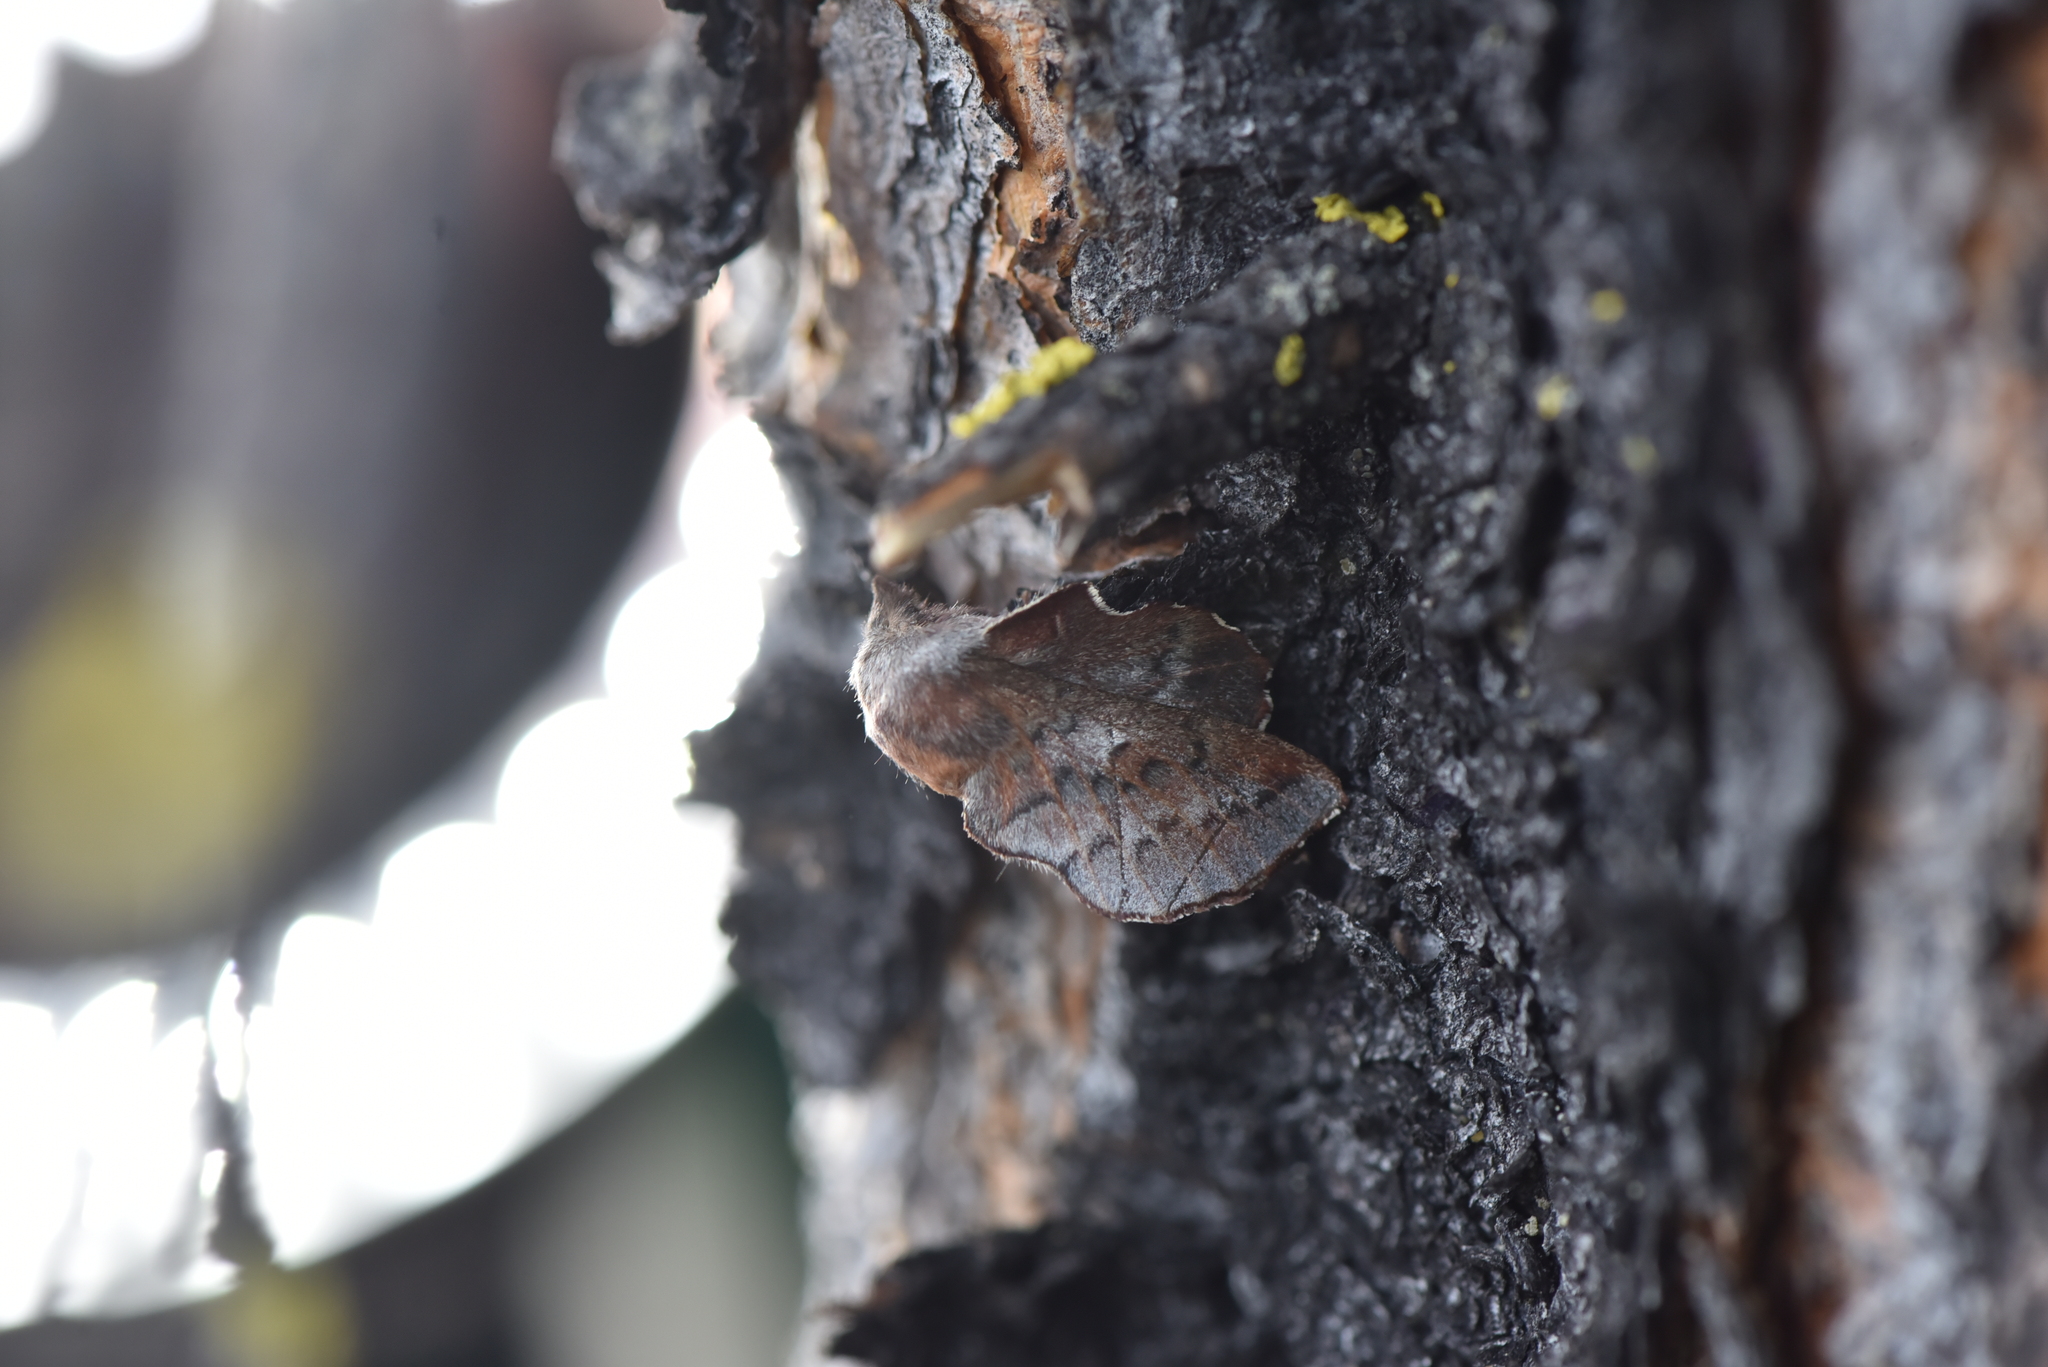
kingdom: Animalia
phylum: Arthropoda
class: Insecta
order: Lepidoptera
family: Lasiocampidae
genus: Phyllodesma
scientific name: Phyllodesma americana
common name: American lappet moth
